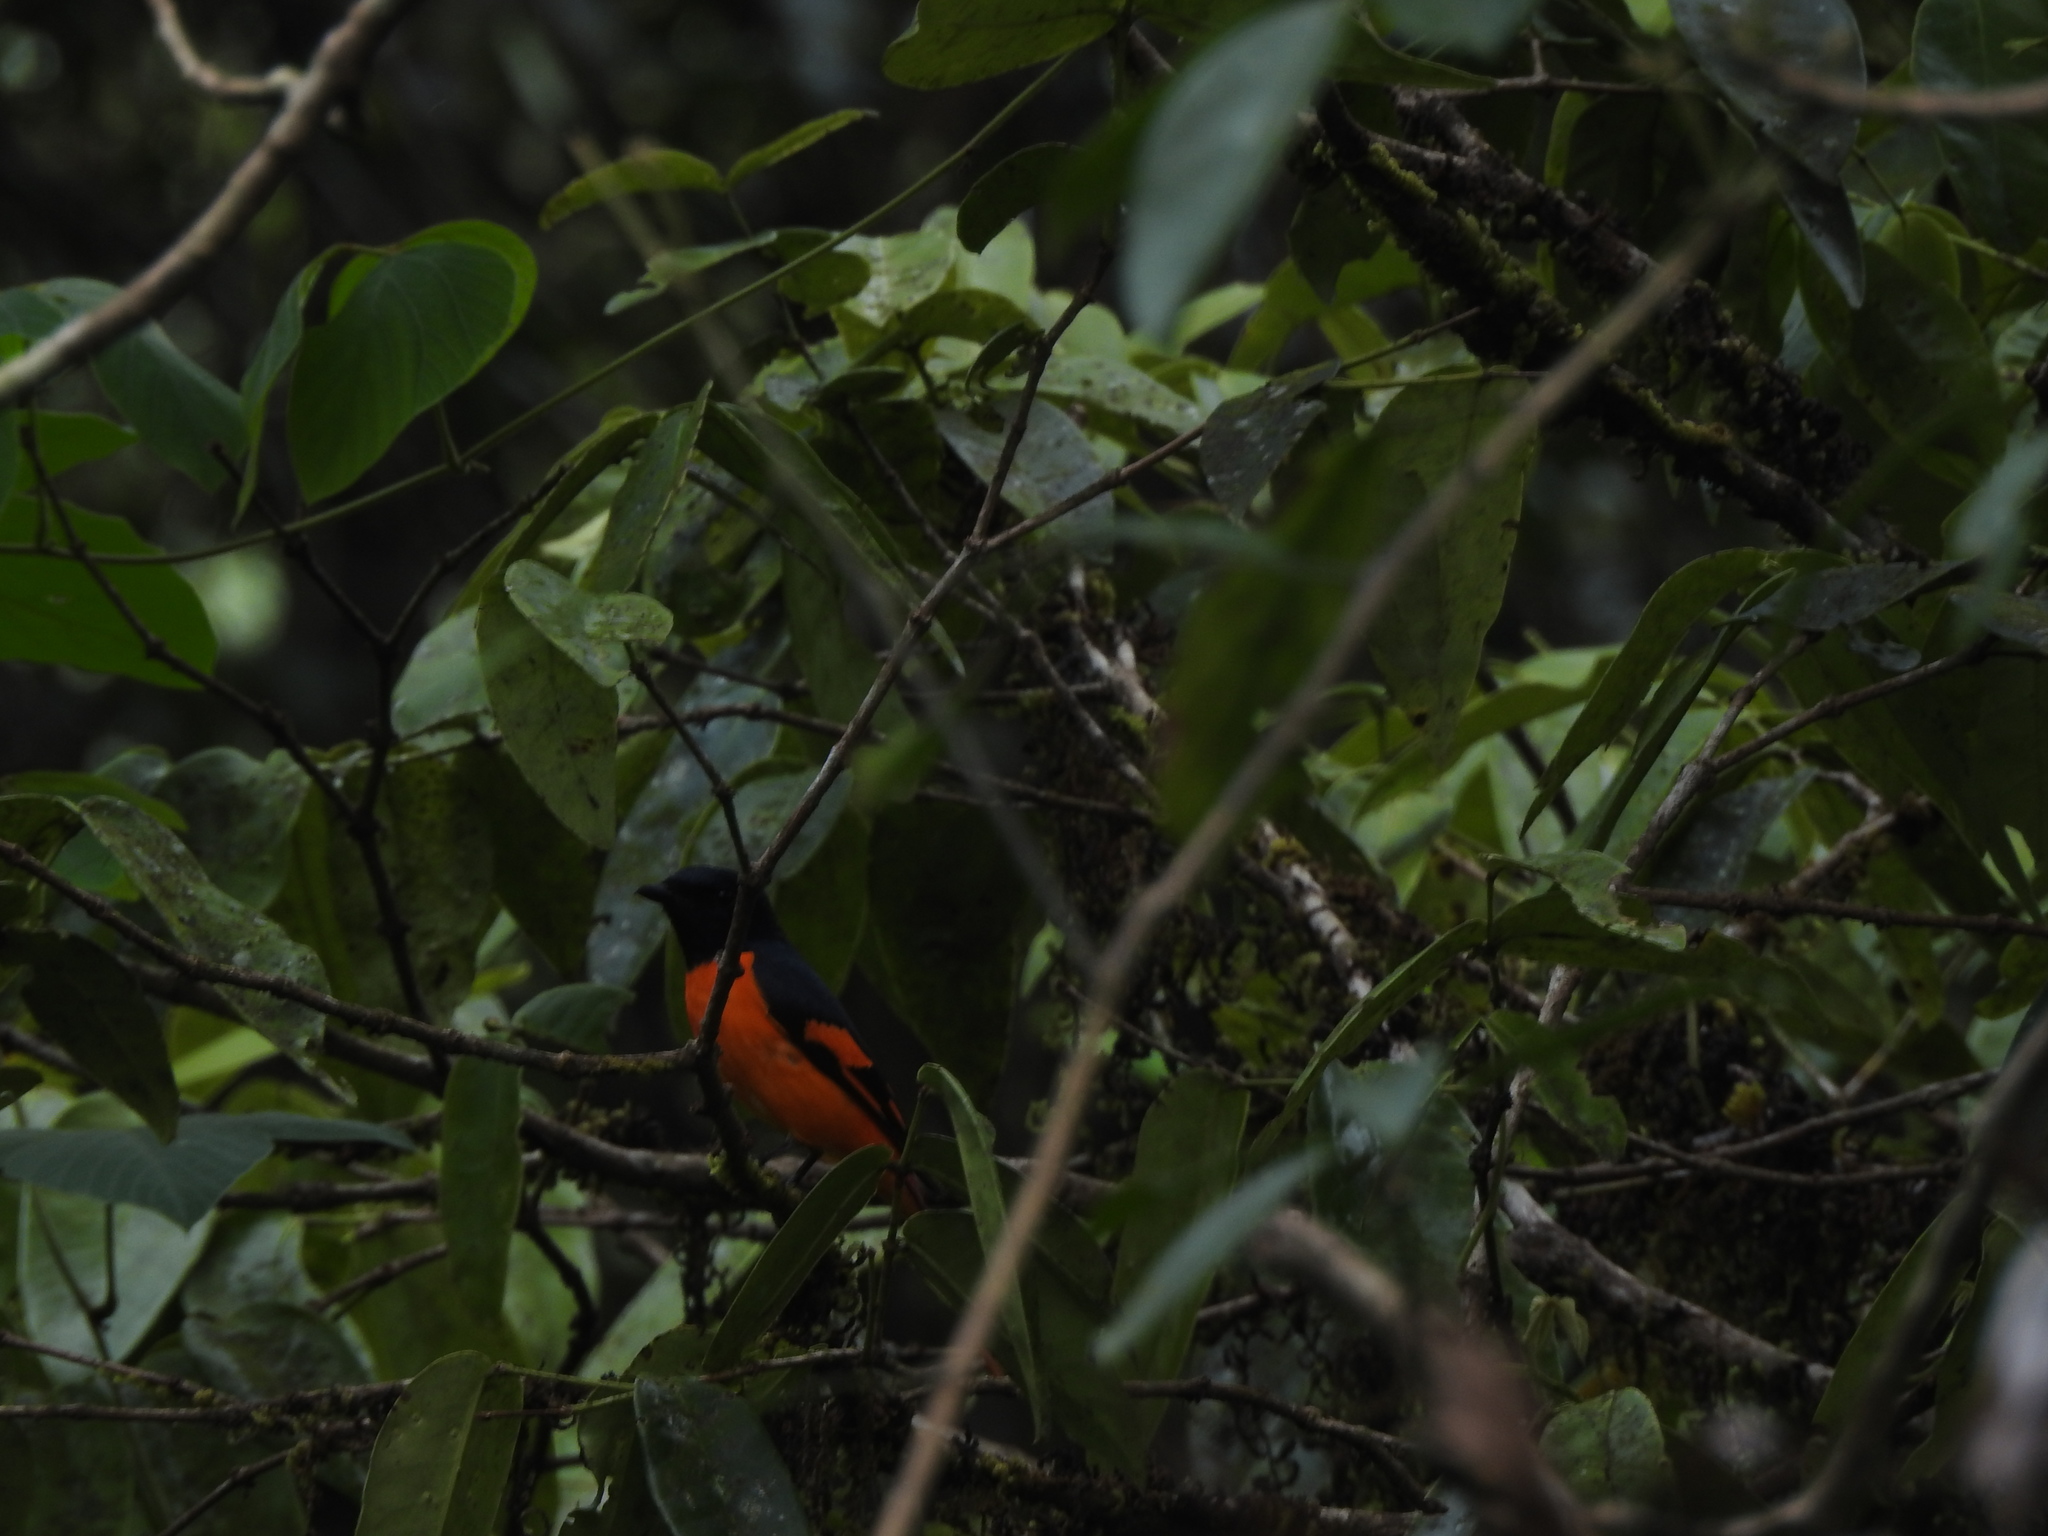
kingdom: Animalia
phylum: Chordata
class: Aves
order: Passeriformes
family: Campephagidae
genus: Pericrocotus
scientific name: Pericrocotus flammeus
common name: Orange minivet
